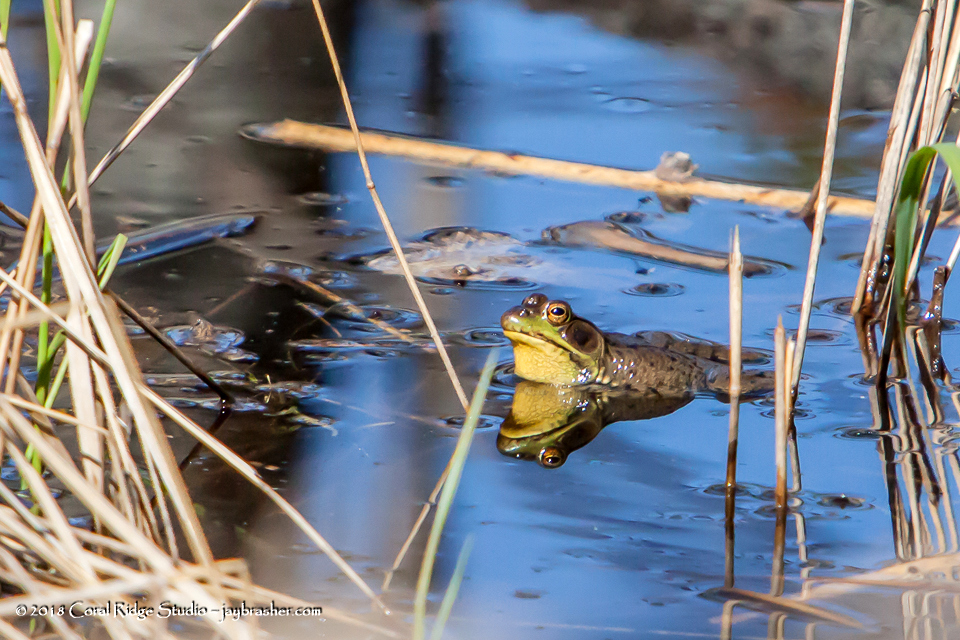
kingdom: Animalia
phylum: Chordata
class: Amphibia
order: Anura
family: Ranidae
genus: Lithobates
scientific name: Lithobates clamitans
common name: Green frog
